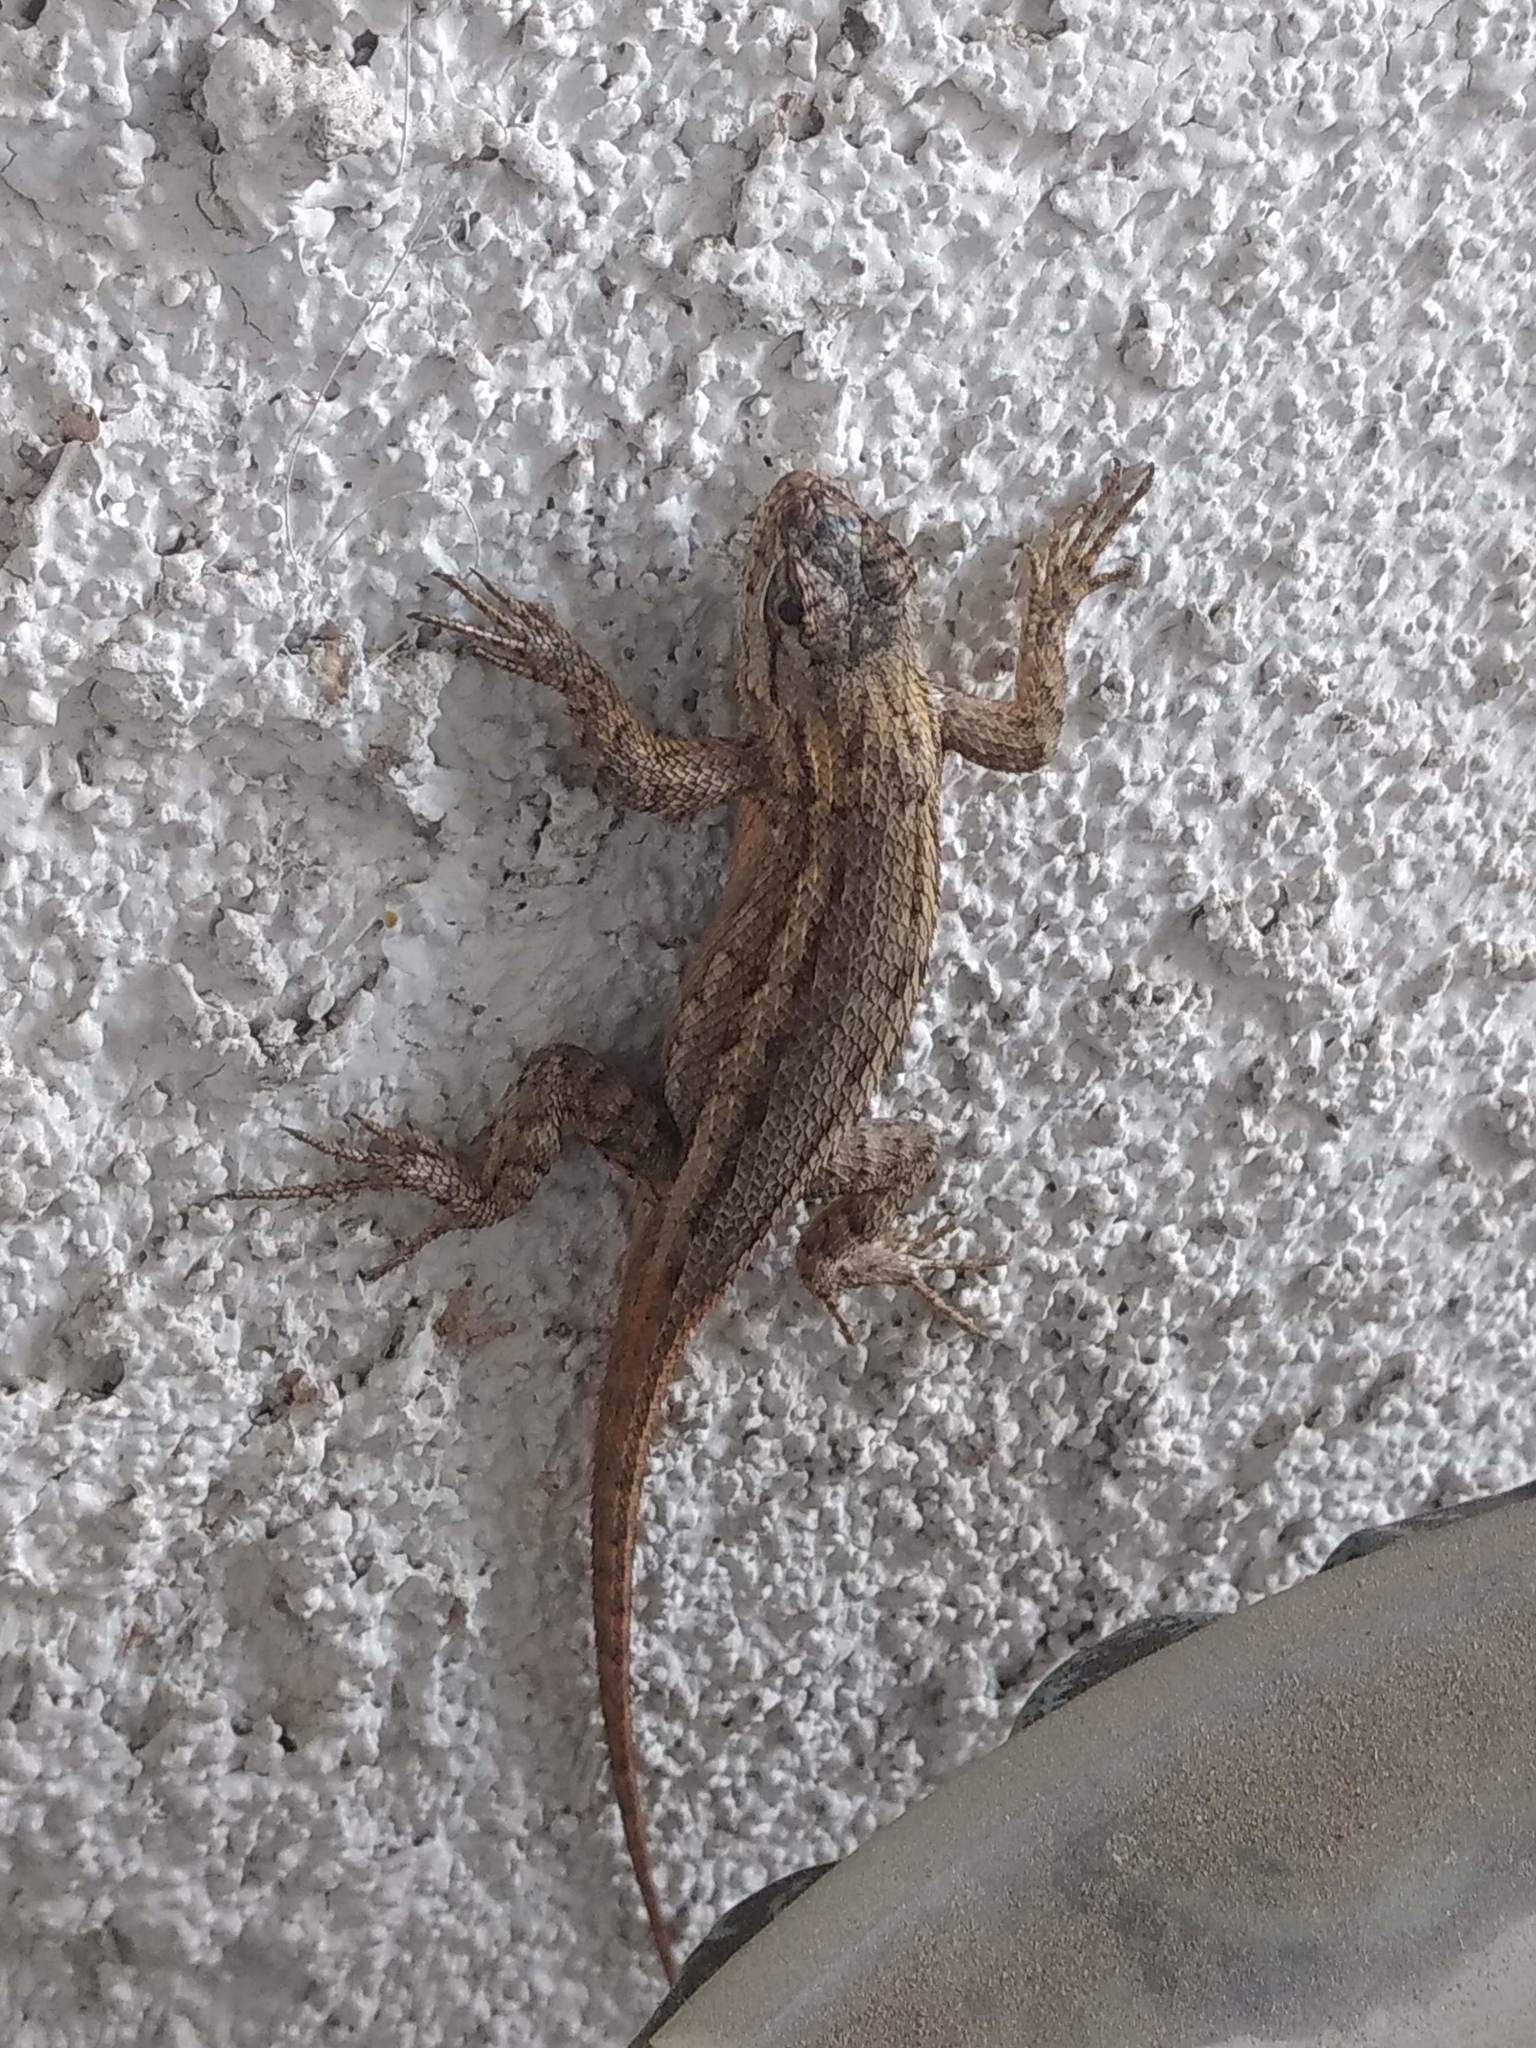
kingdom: Animalia
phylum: Chordata
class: Squamata
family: Phrynosomatidae
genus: Sceloporus
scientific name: Sceloporus occidentalis
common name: Western fence lizard
